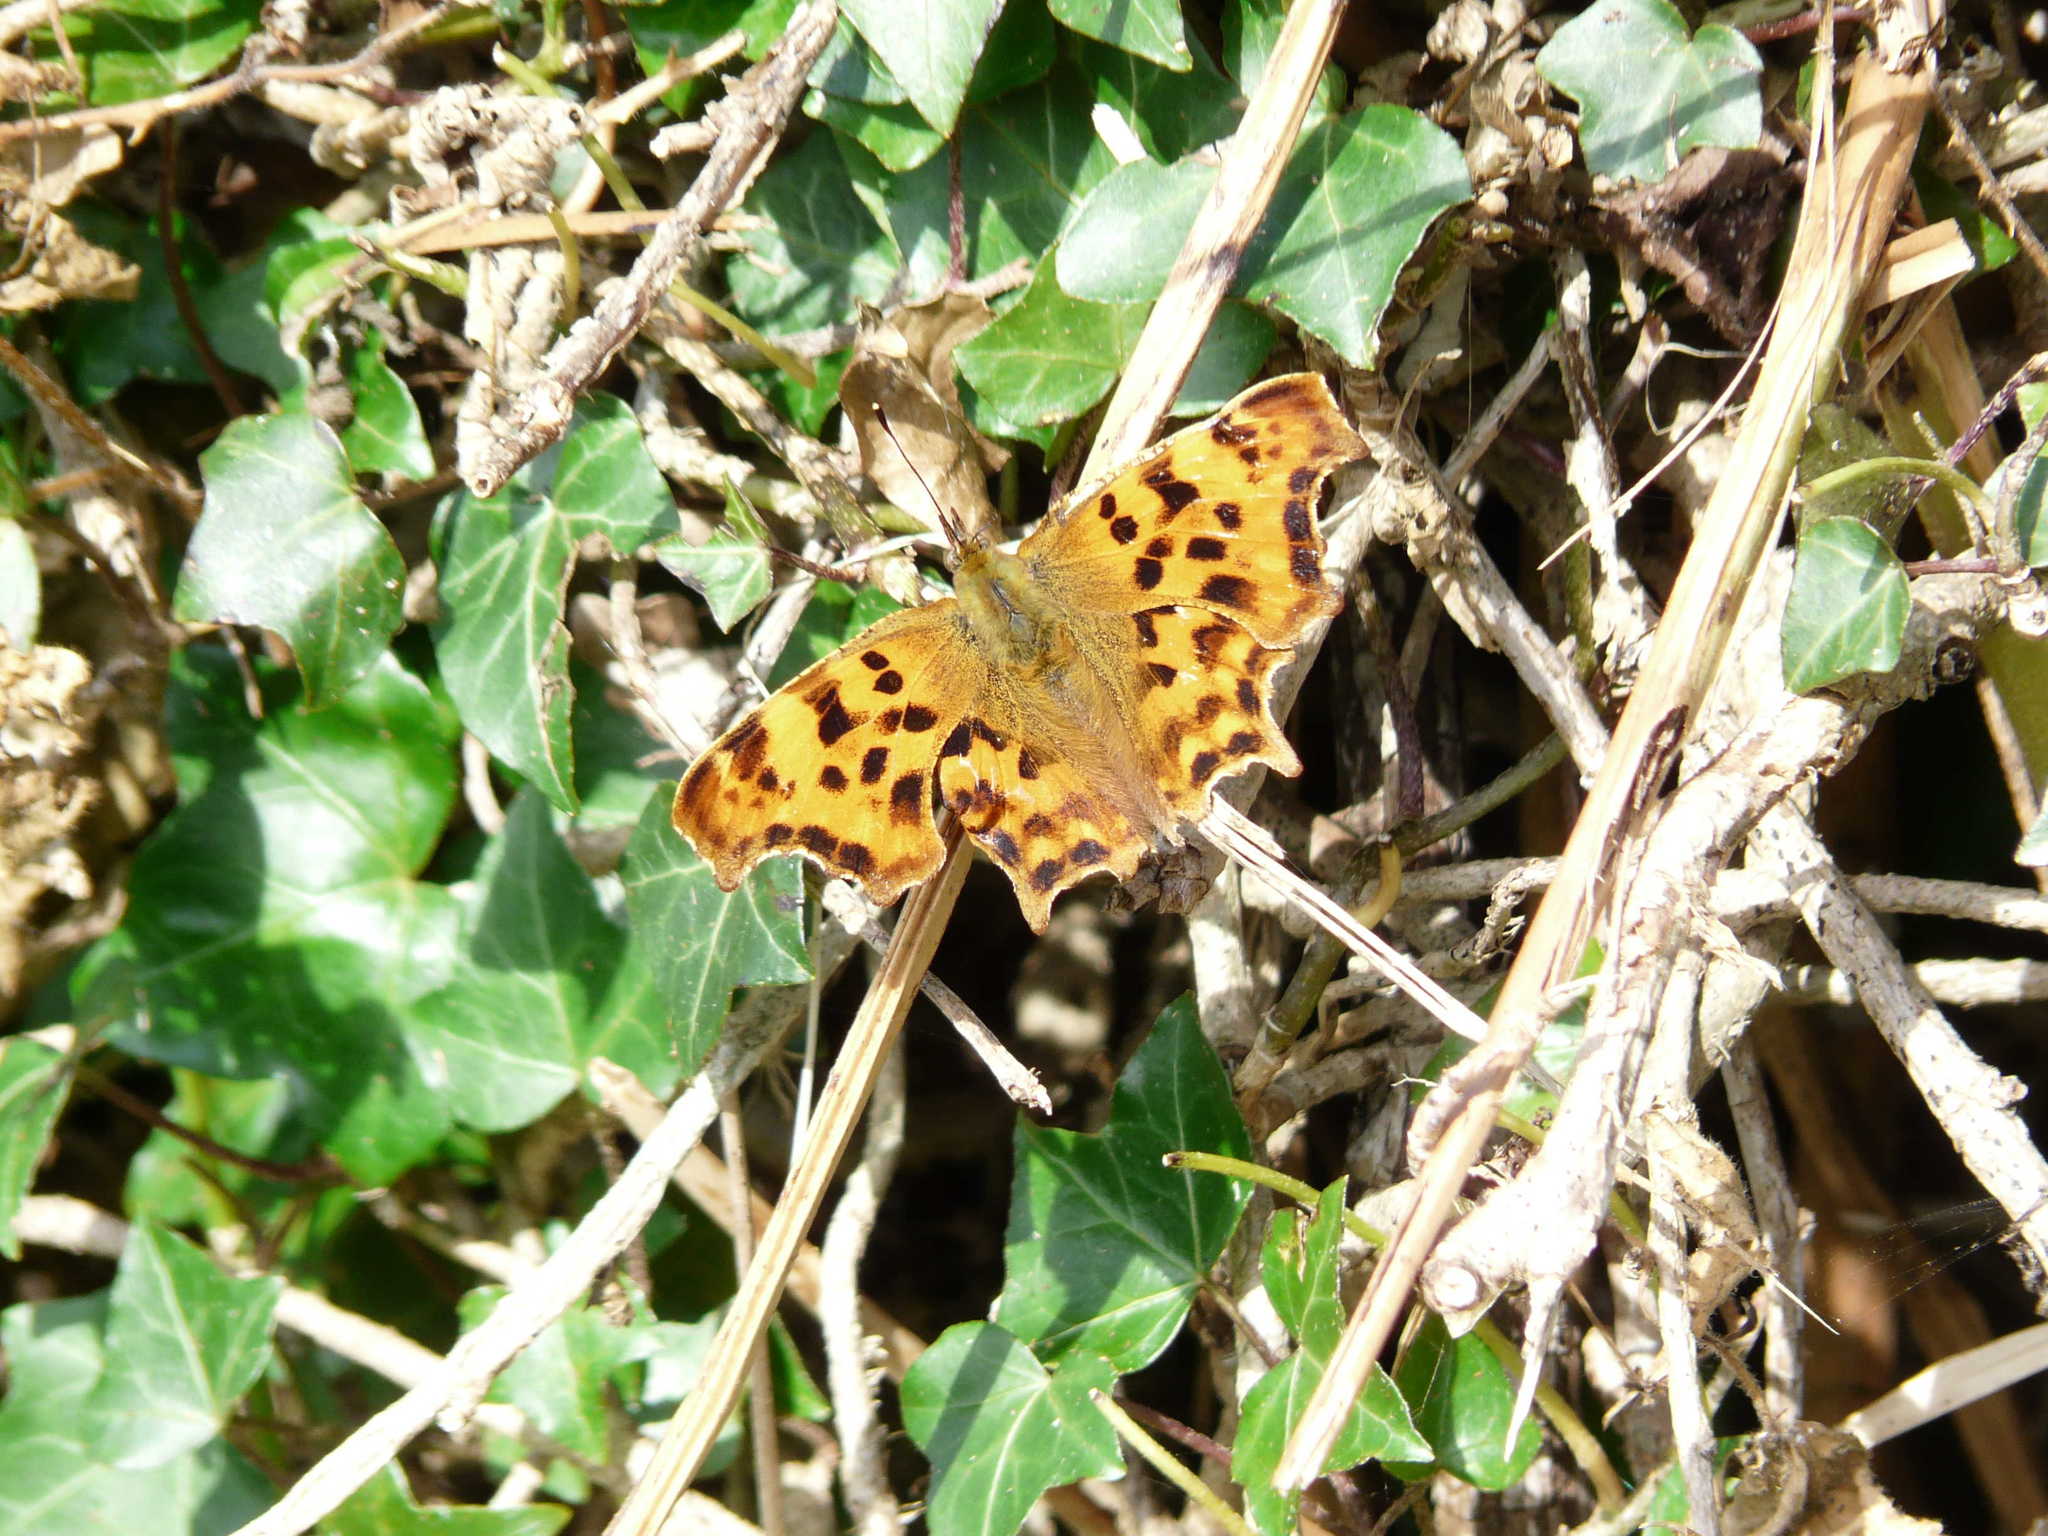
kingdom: Animalia
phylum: Arthropoda
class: Insecta
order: Lepidoptera
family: Nymphalidae
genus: Polygonia
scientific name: Polygonia c-album
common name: Comma
